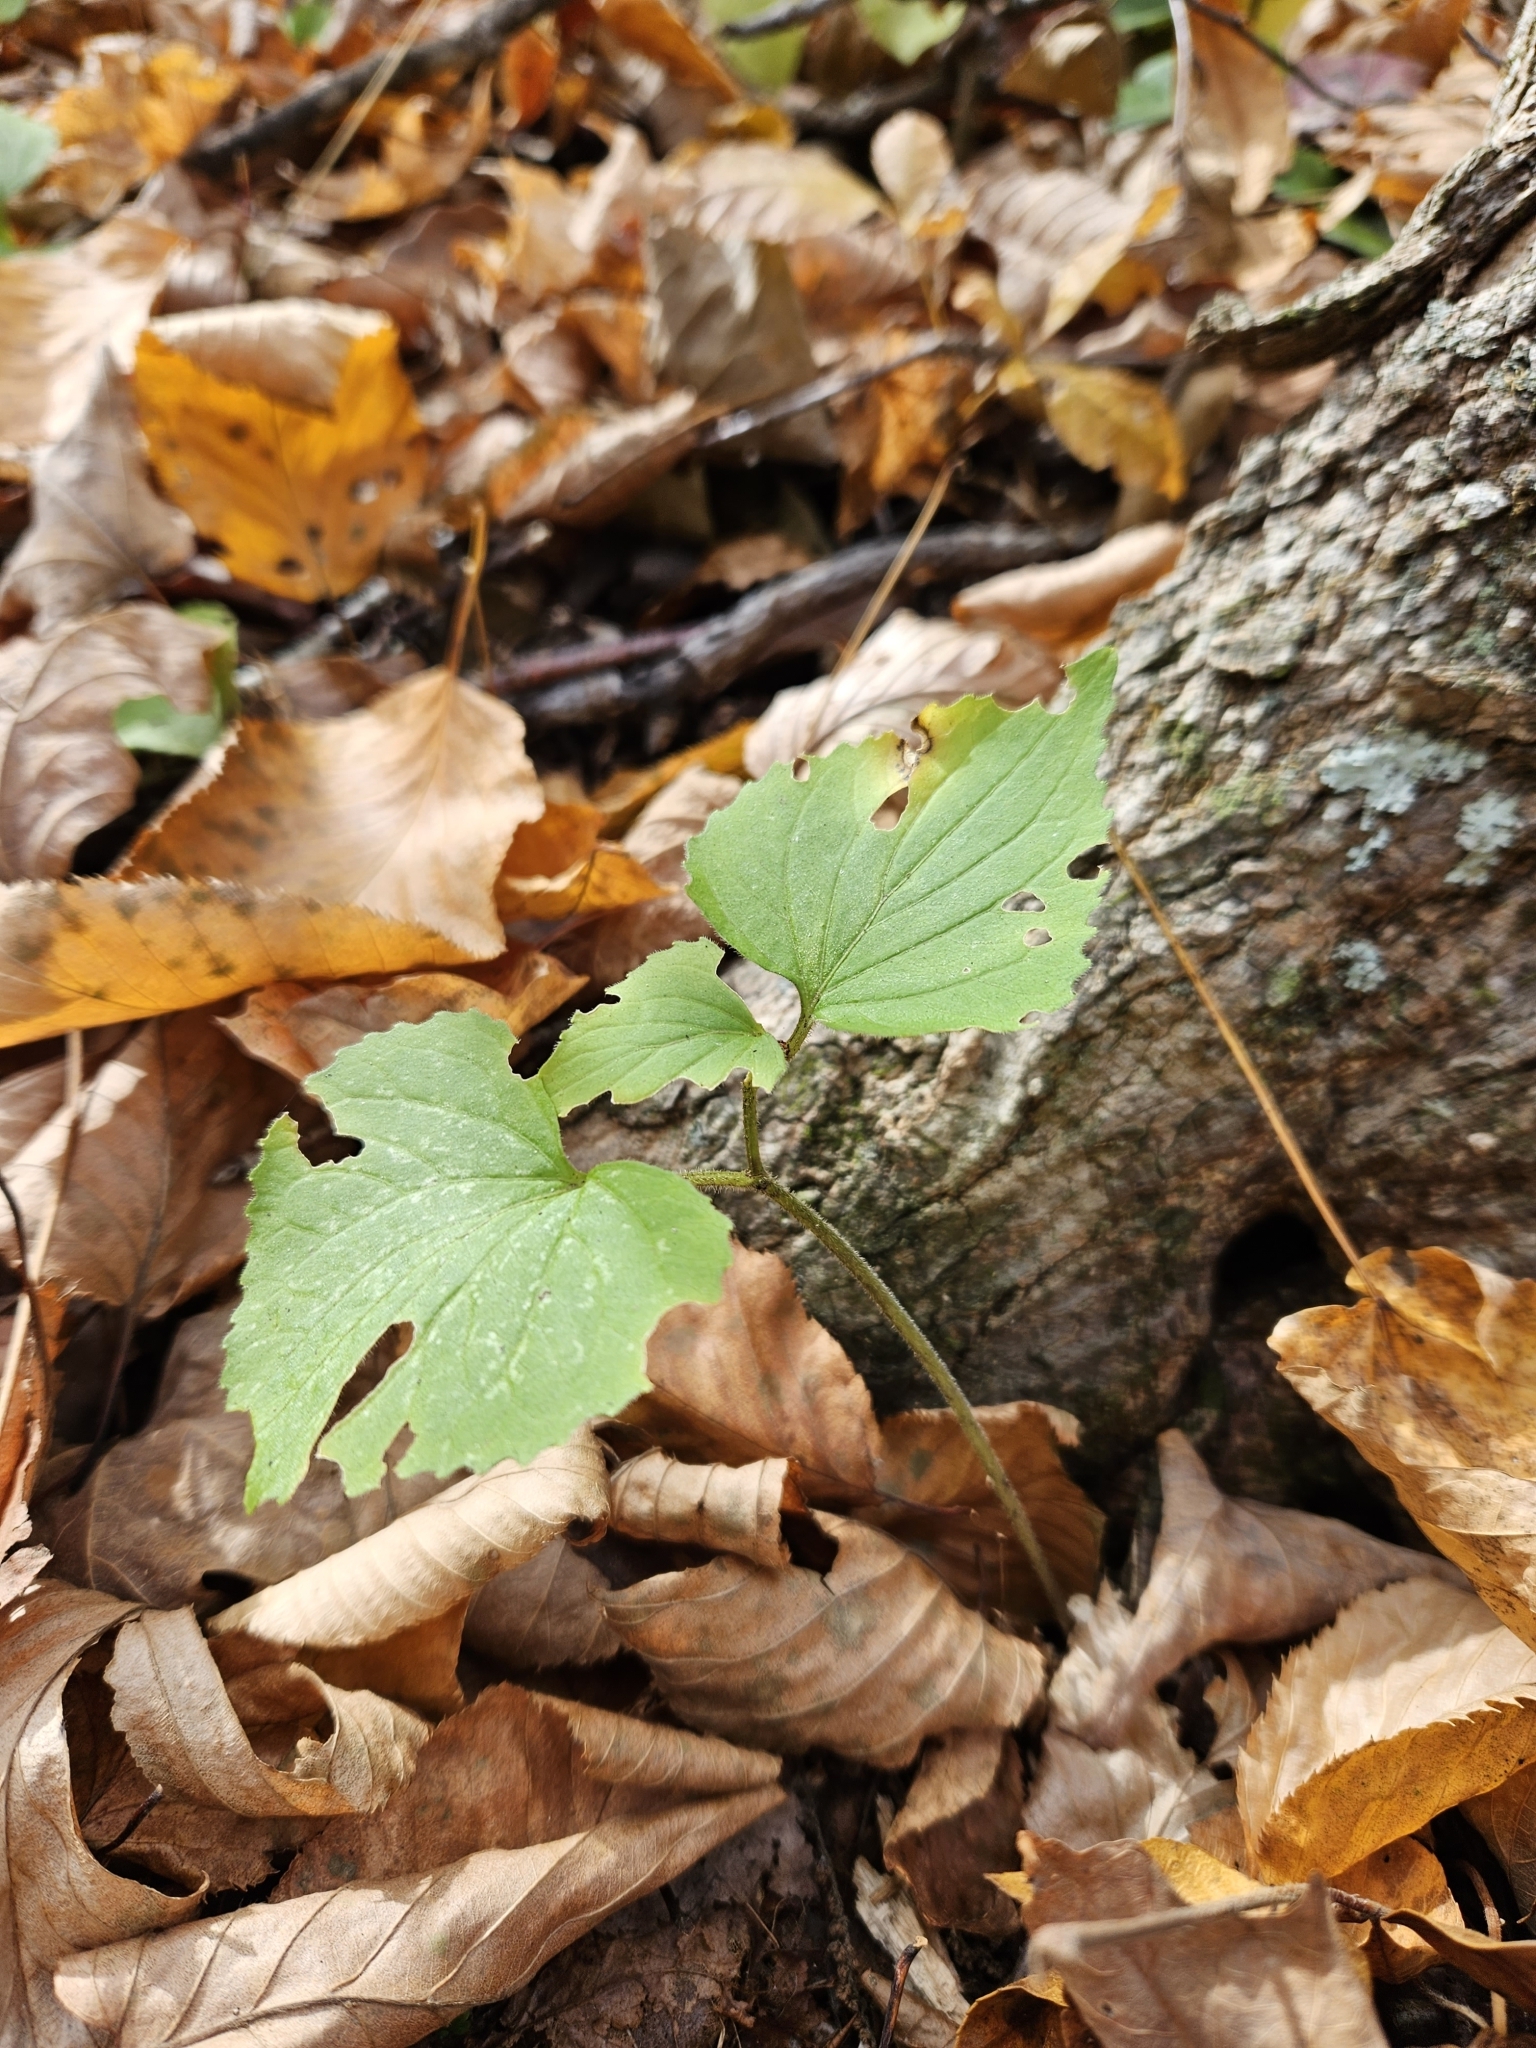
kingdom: Plantae
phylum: Tracheophyta
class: Magnoliopsida
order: Malpighiales
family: Violaceae
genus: Viola
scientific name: Viola pubescens
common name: Yellow forest violet
